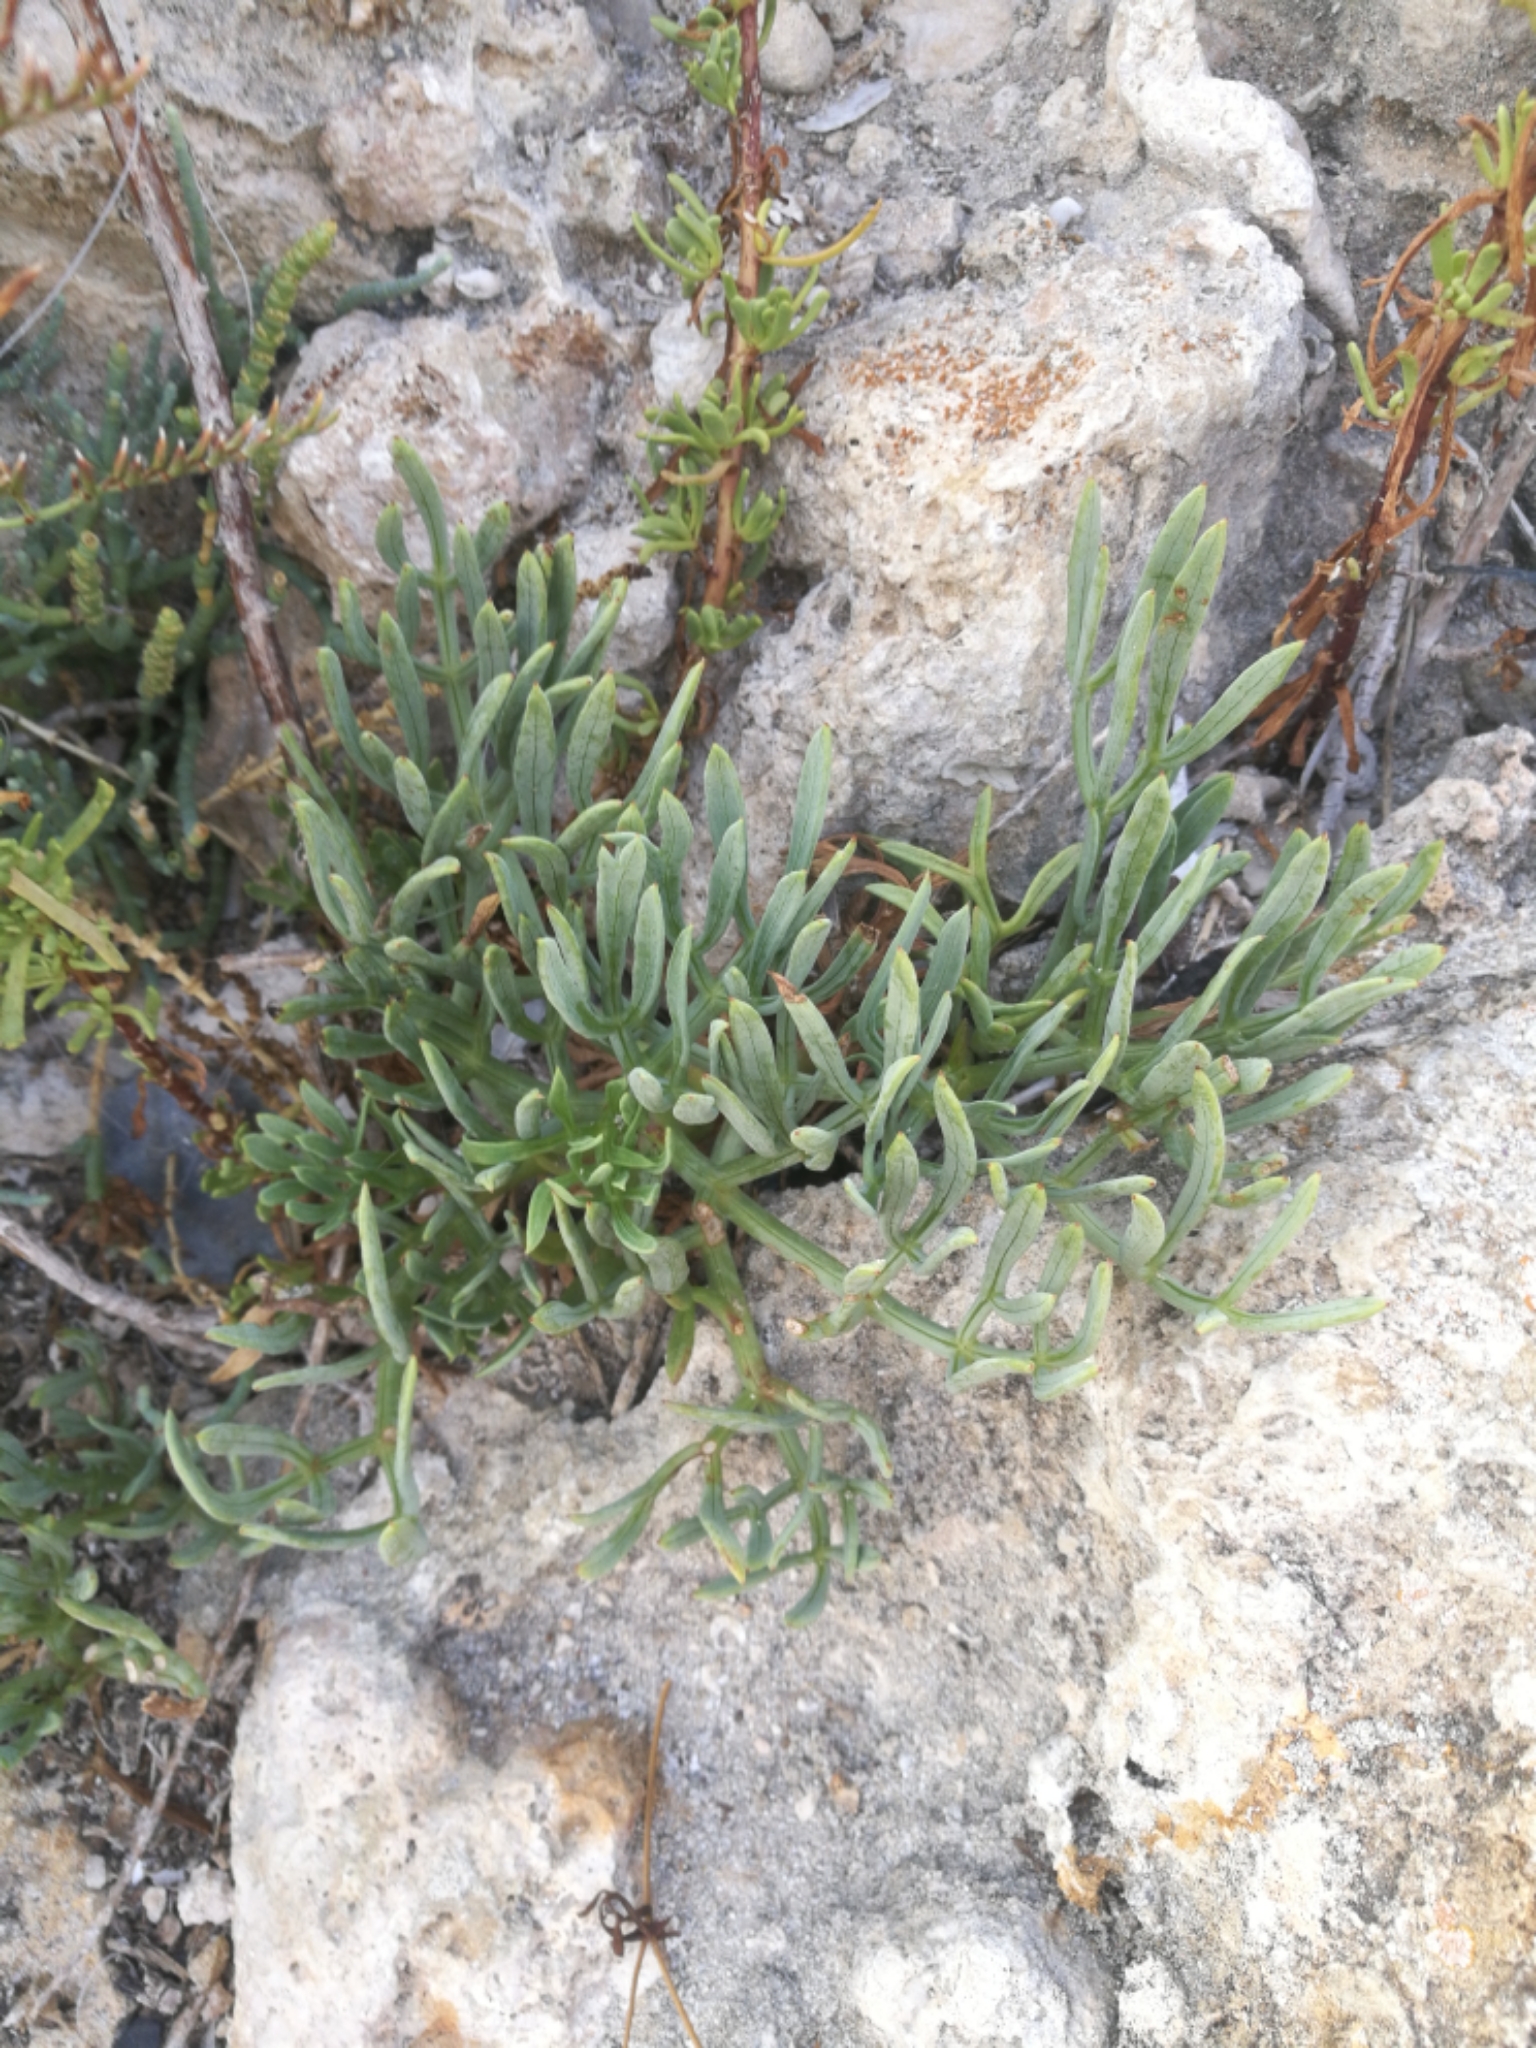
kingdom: Plantae
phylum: Tracheophyta
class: Magnoliopsida
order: Apiales
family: Apiaceae
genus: Crithmum
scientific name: Crithmum maritimum
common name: Rock samphire
